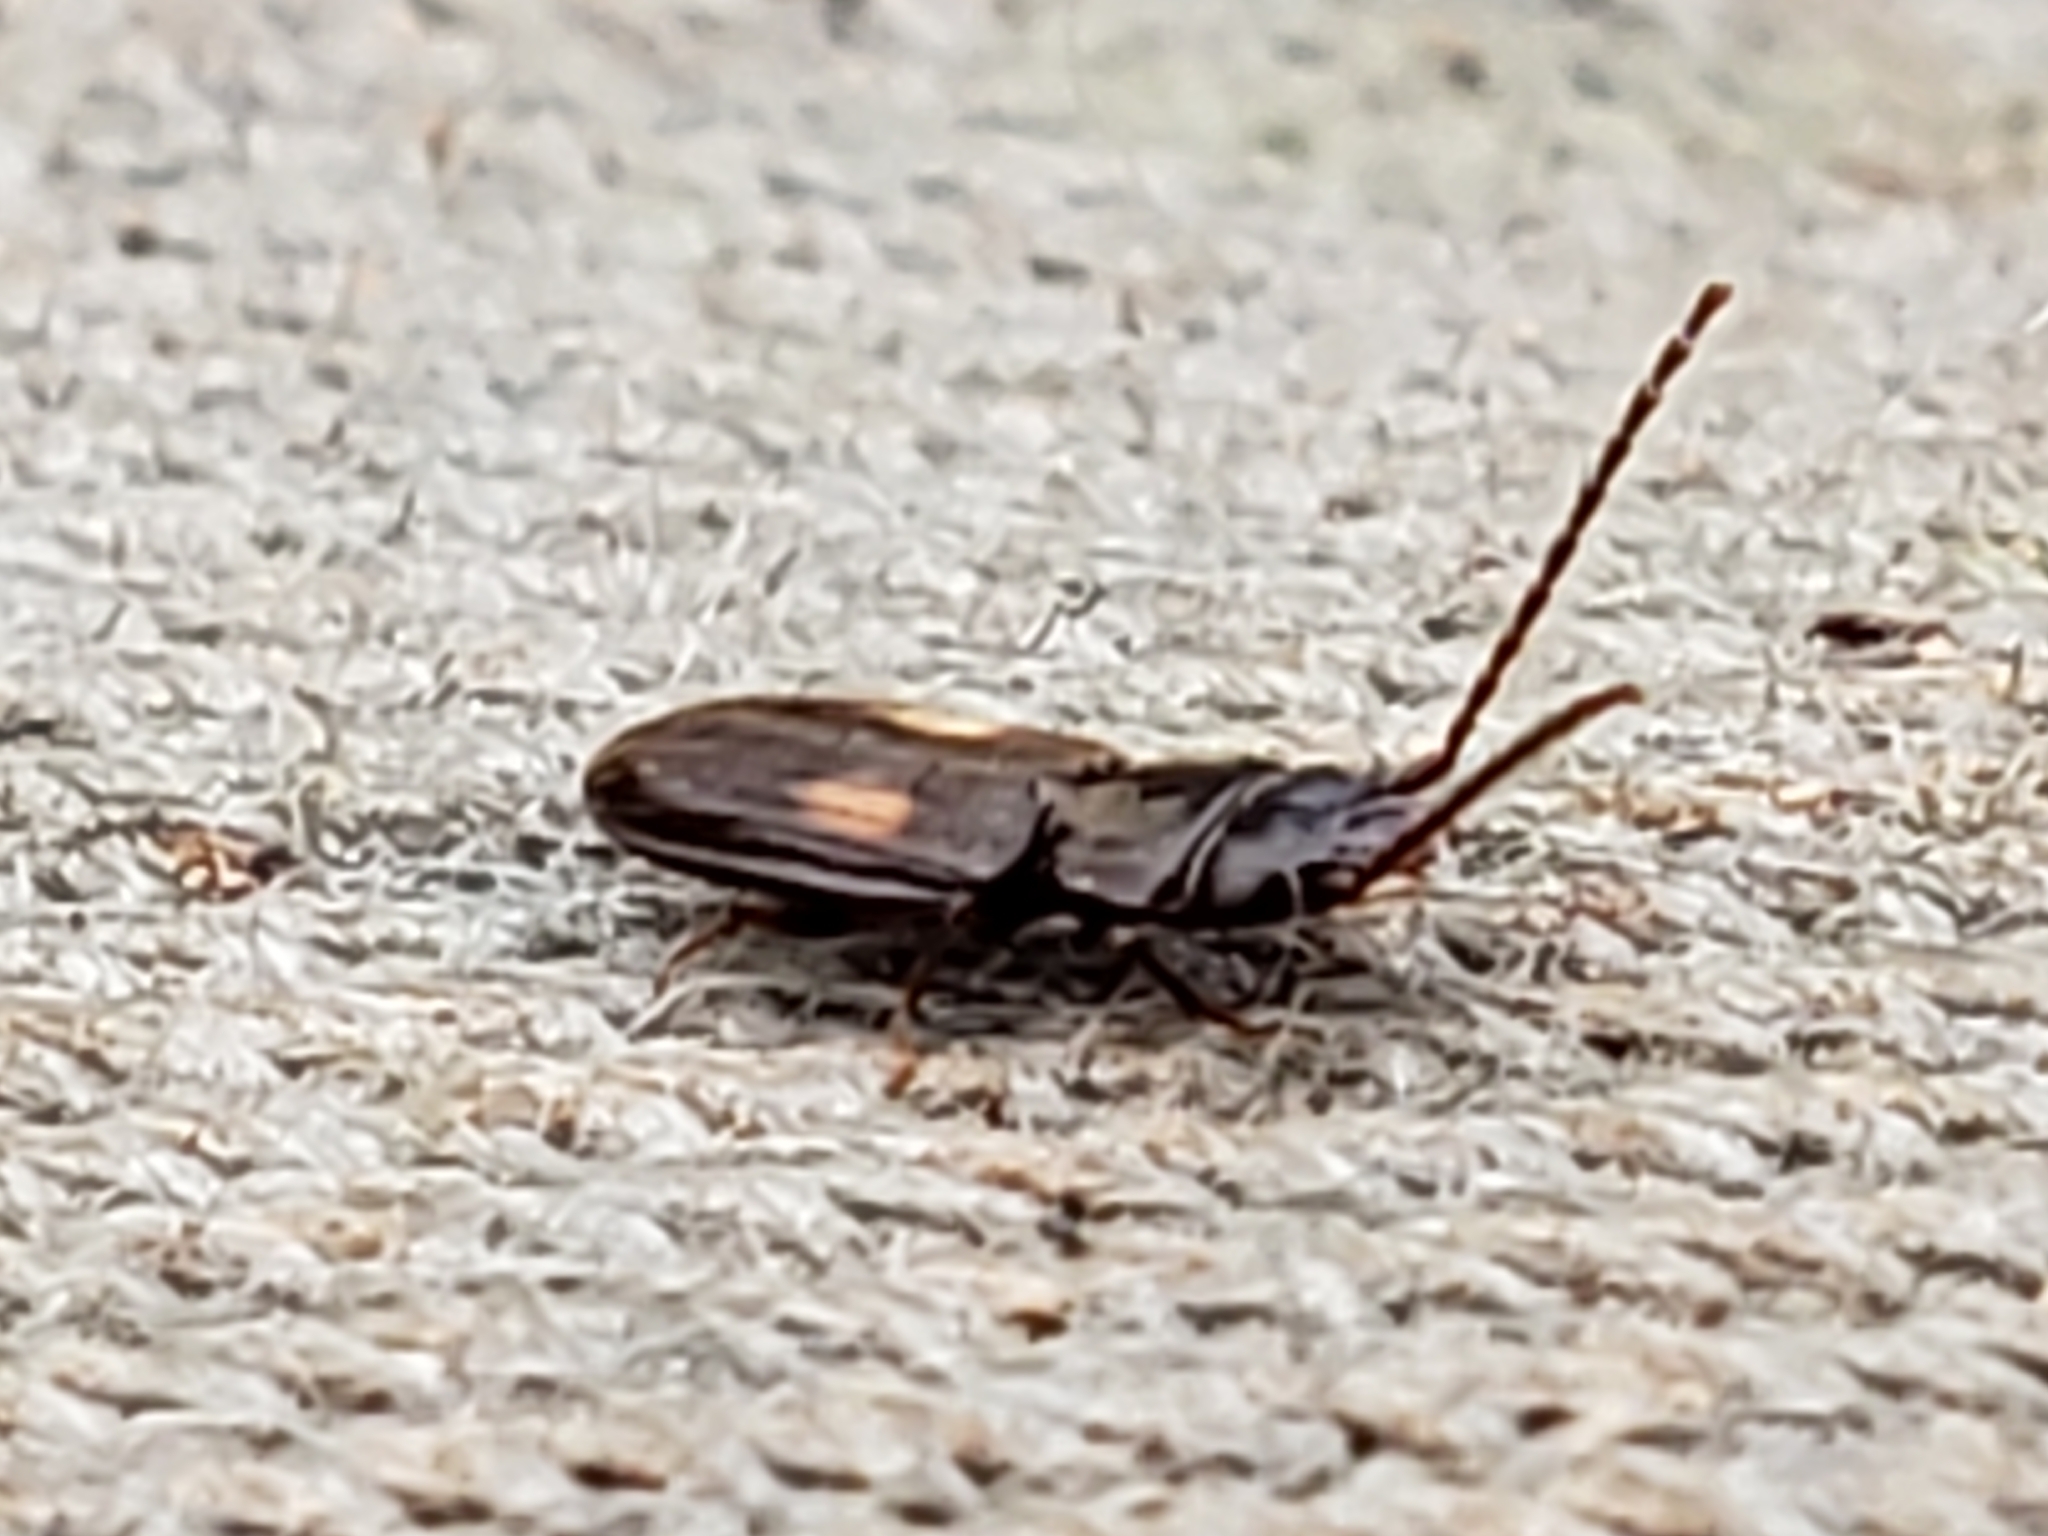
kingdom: Animalia
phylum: Arthropoda
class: Insecta
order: Coleoptera
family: Laemophloeidae
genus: Laemophloeus
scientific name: Laemophloeus biguttatus
